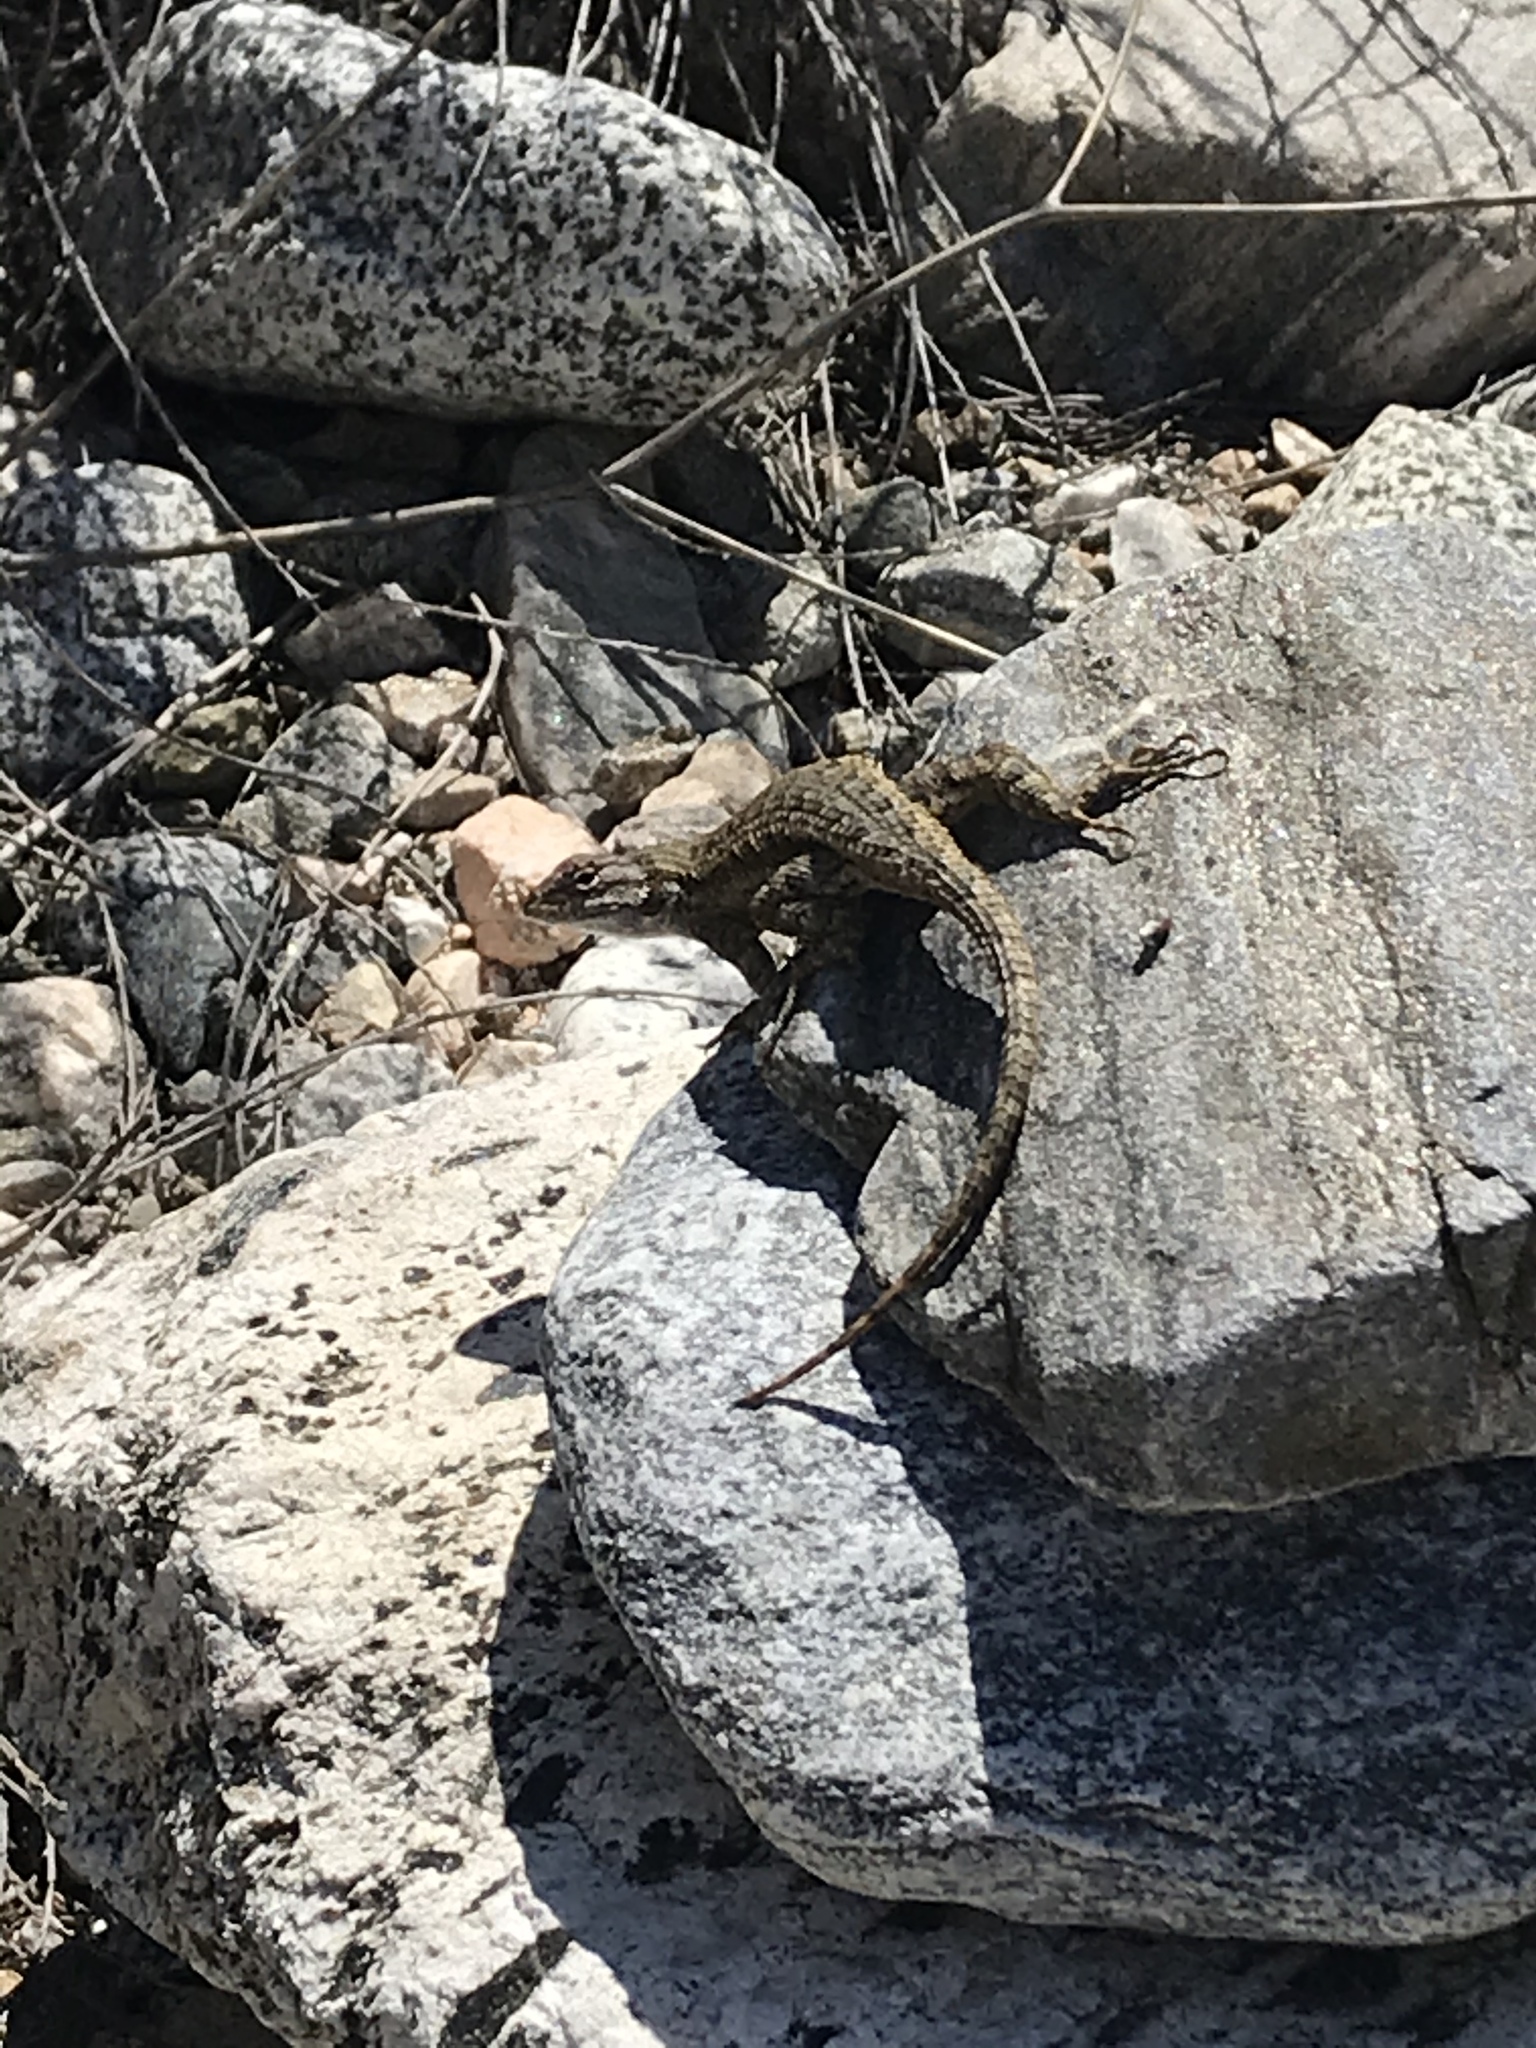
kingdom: Animalia
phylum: Chordata
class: Squamata
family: Phrynosomatidae
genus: Sceloporus
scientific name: Sceloporus occidentalis
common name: Western fence lizard
